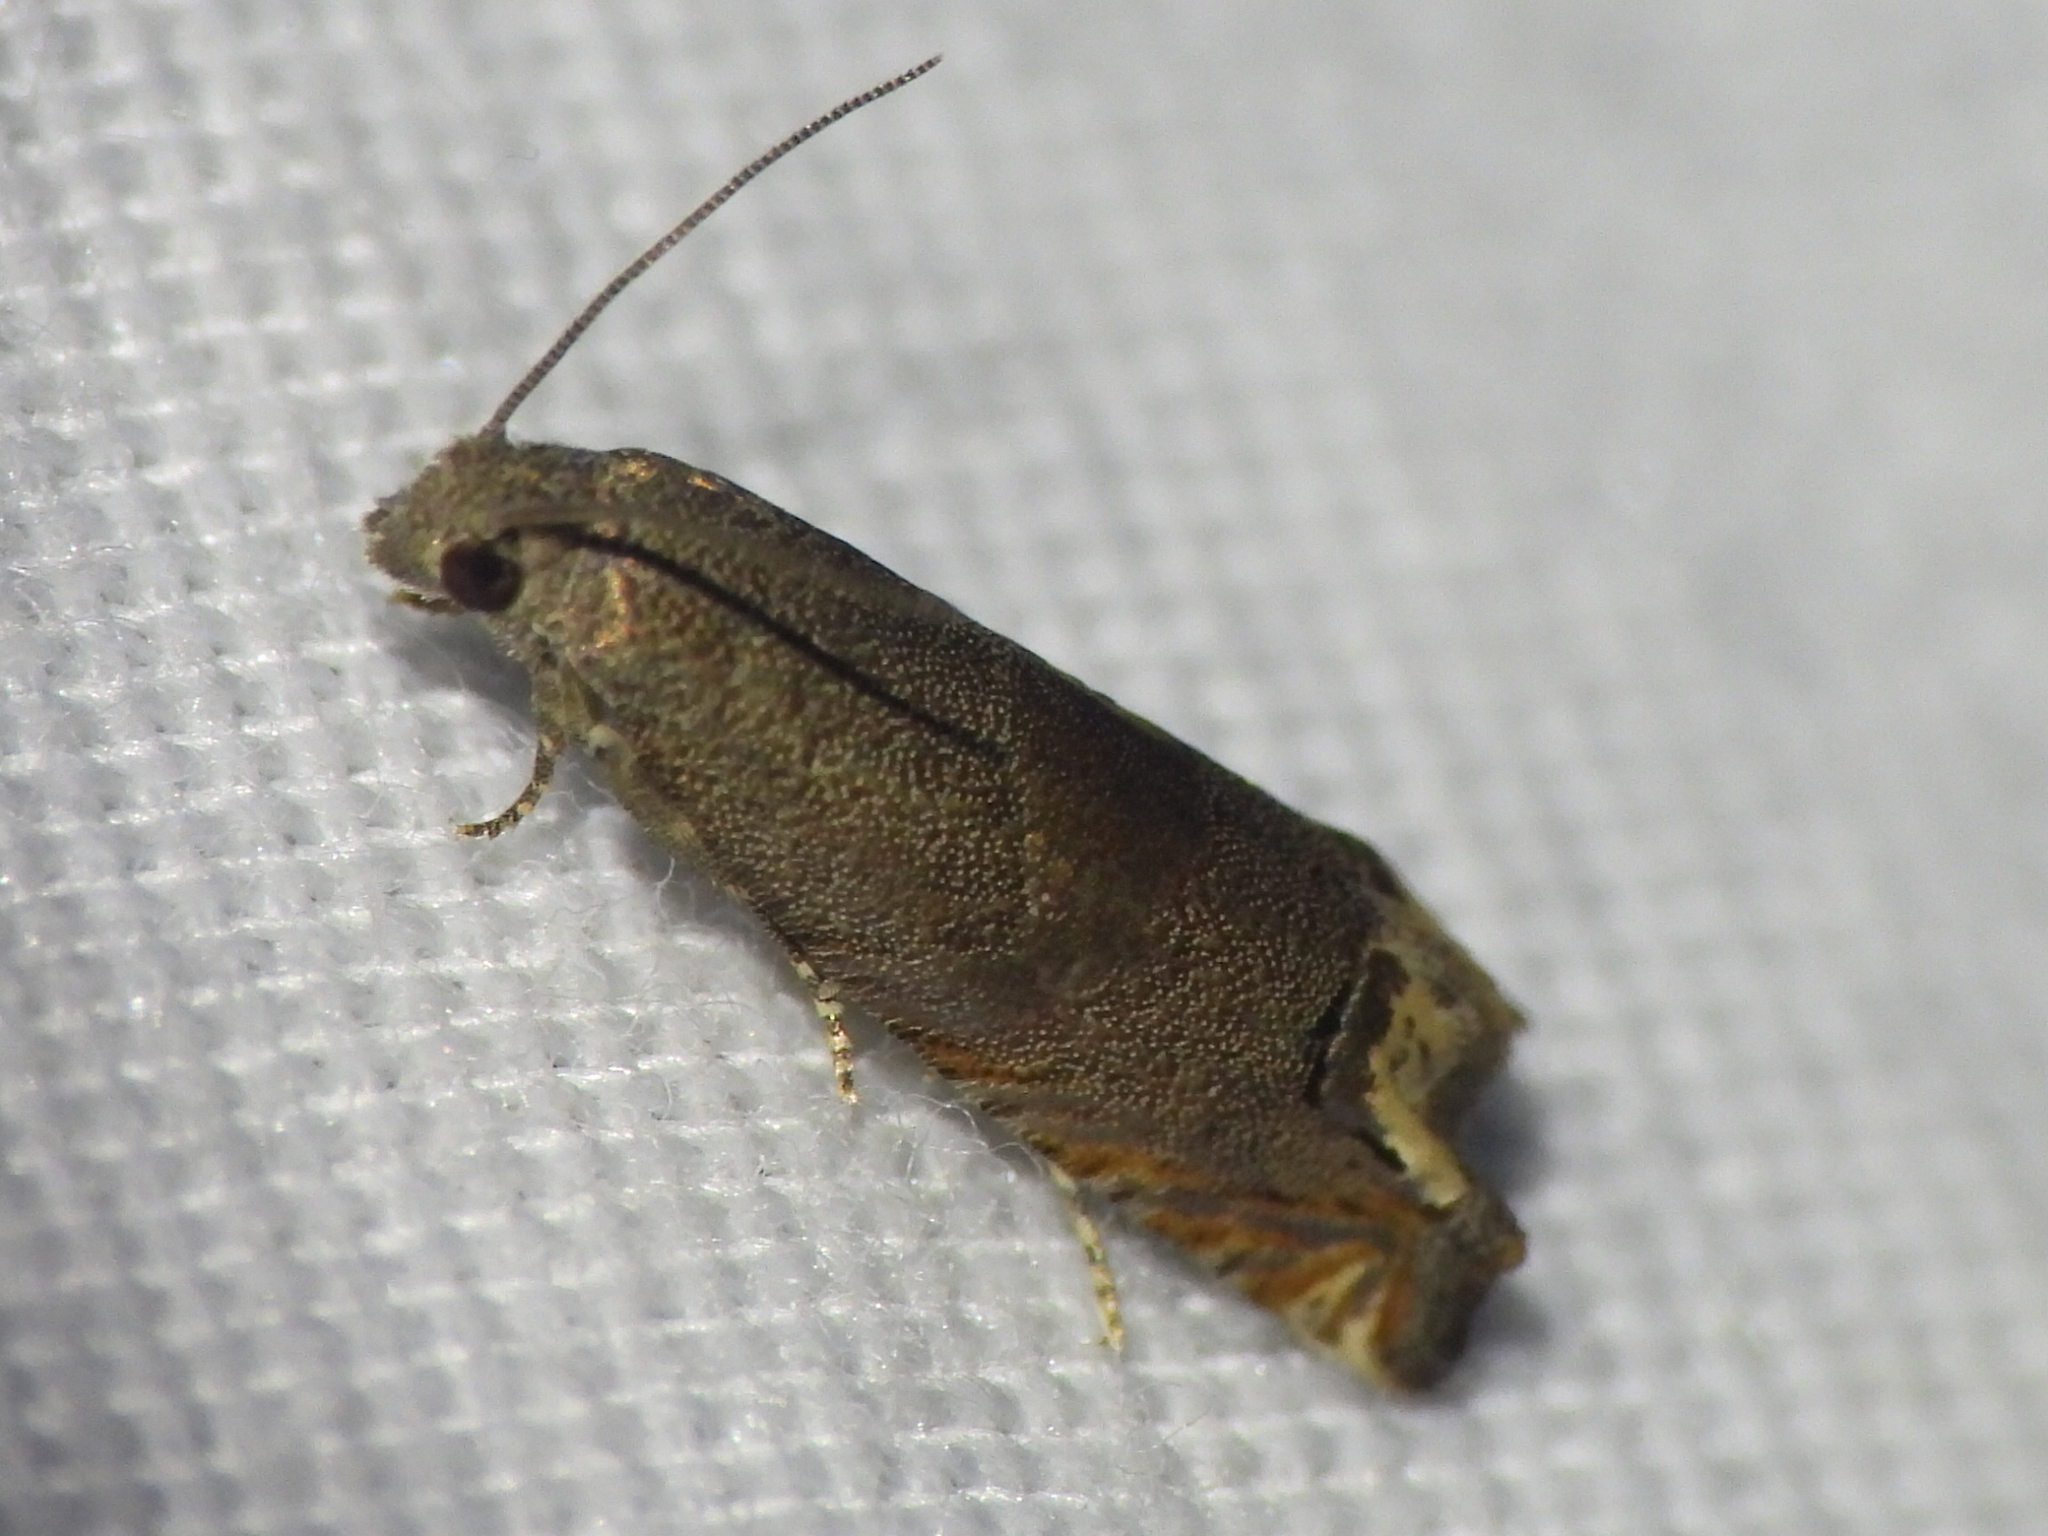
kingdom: Animalia
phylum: Arthropoda
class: Insecta
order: Lepidoptera
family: Tortricidae
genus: Epiblema
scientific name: Epiblema strenuana
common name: Ragweed borer moth
